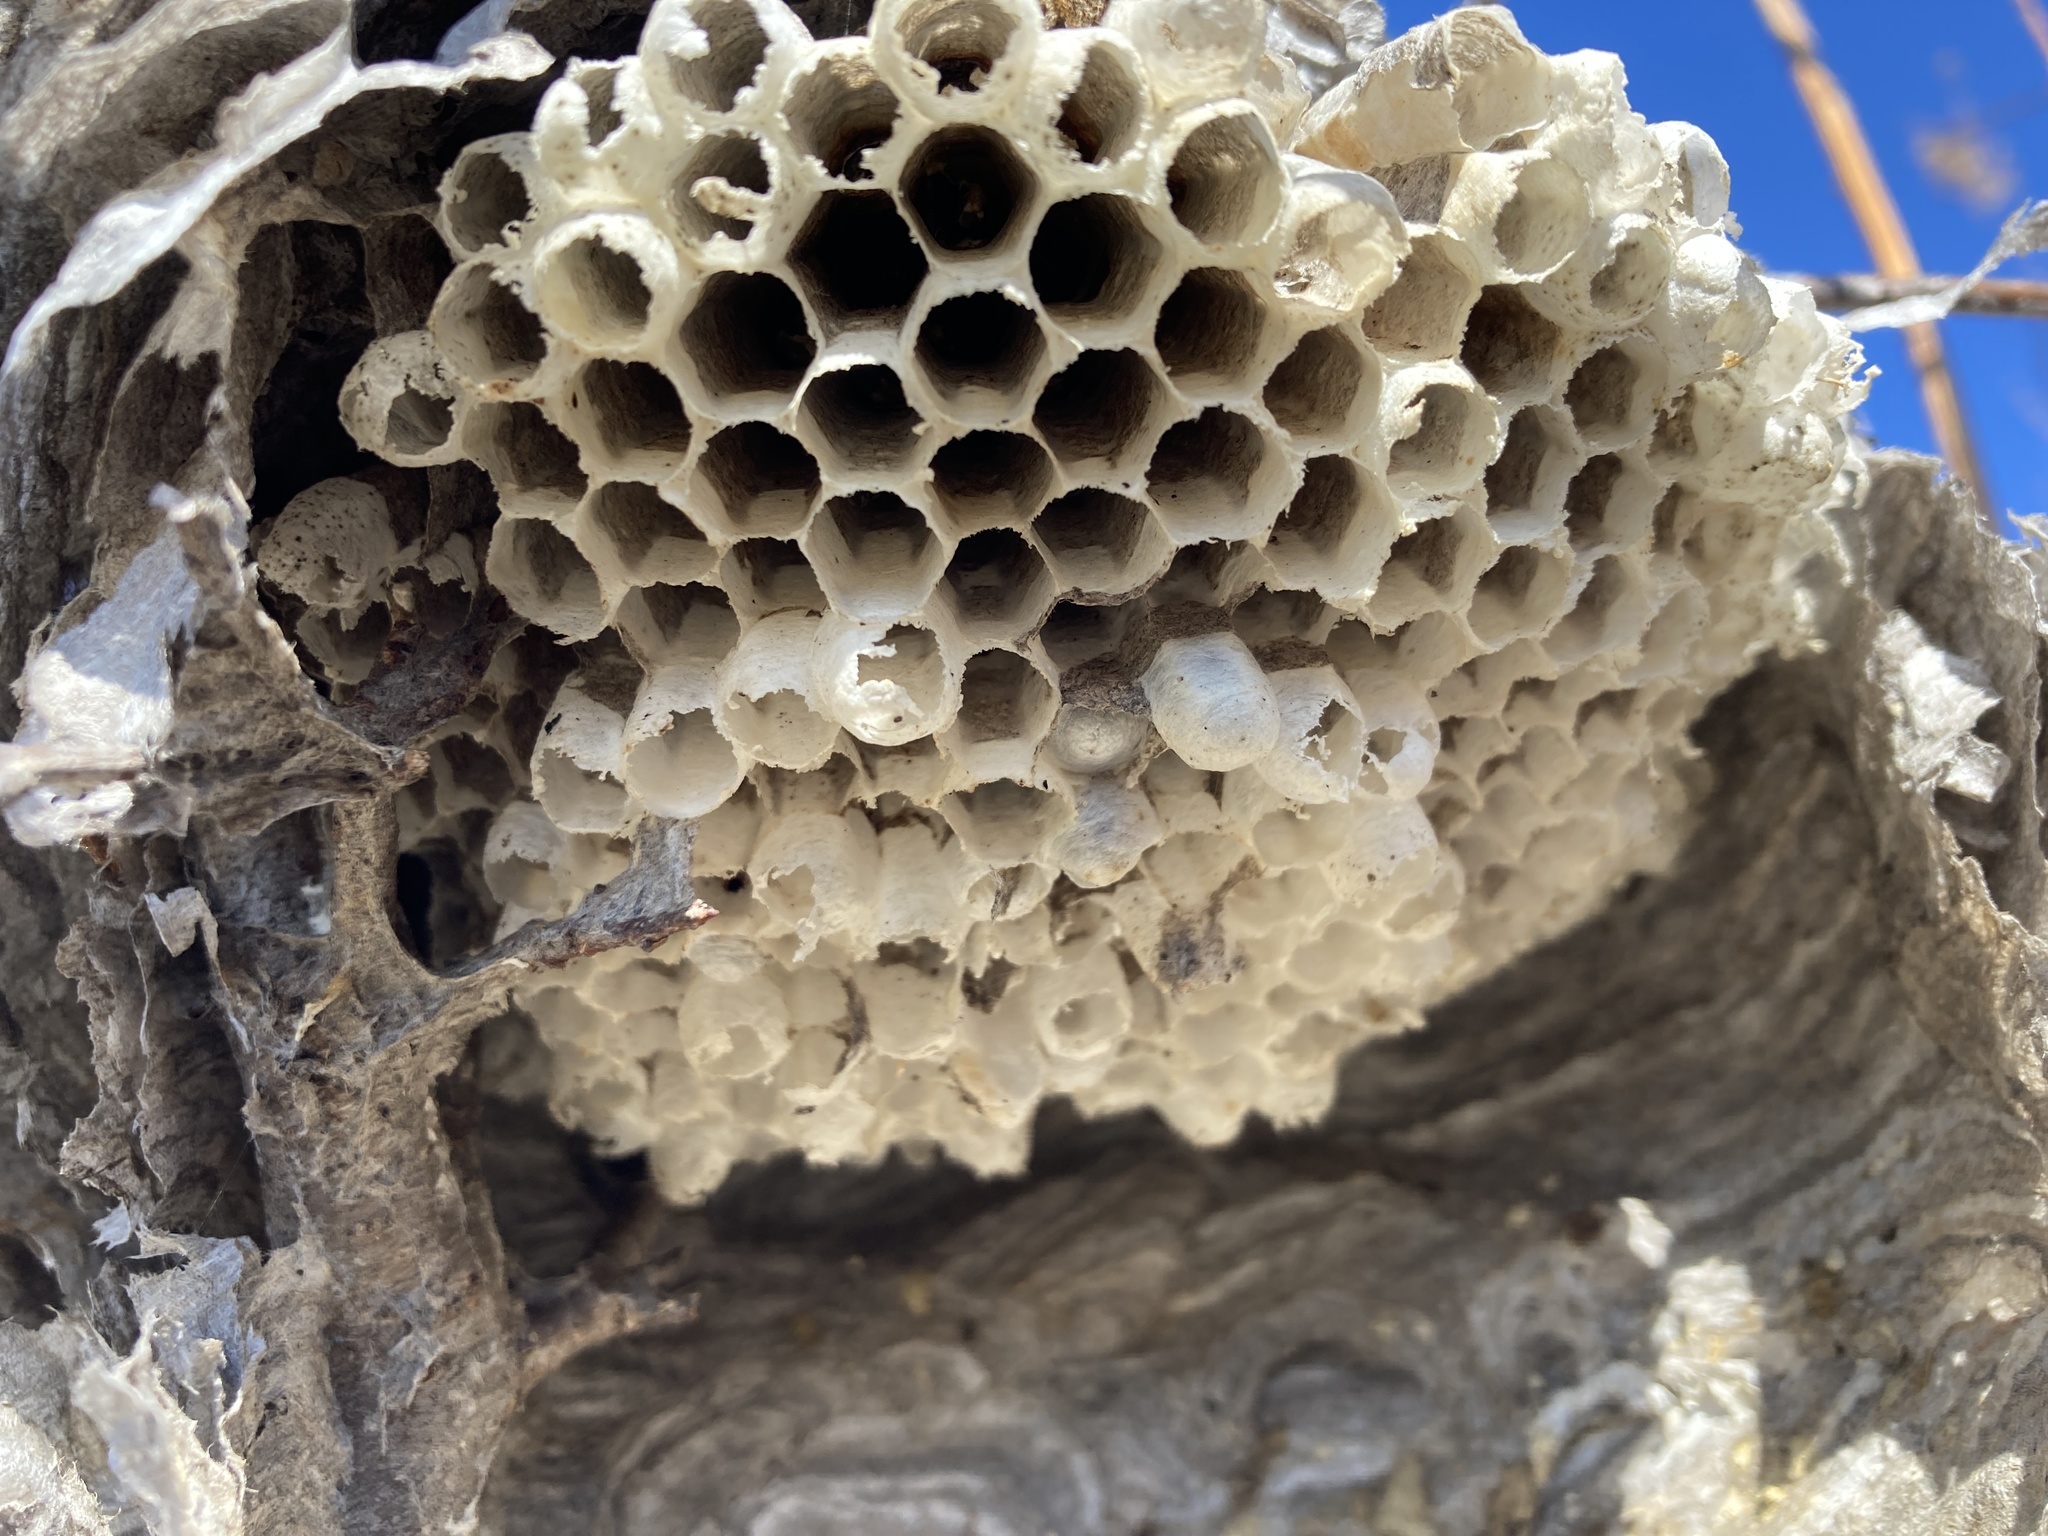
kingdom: Animalia
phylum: Arthropoda
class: Insecta
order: Hymenoptera
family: Vespidae
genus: Dolichovespula
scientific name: Dolichovespula
